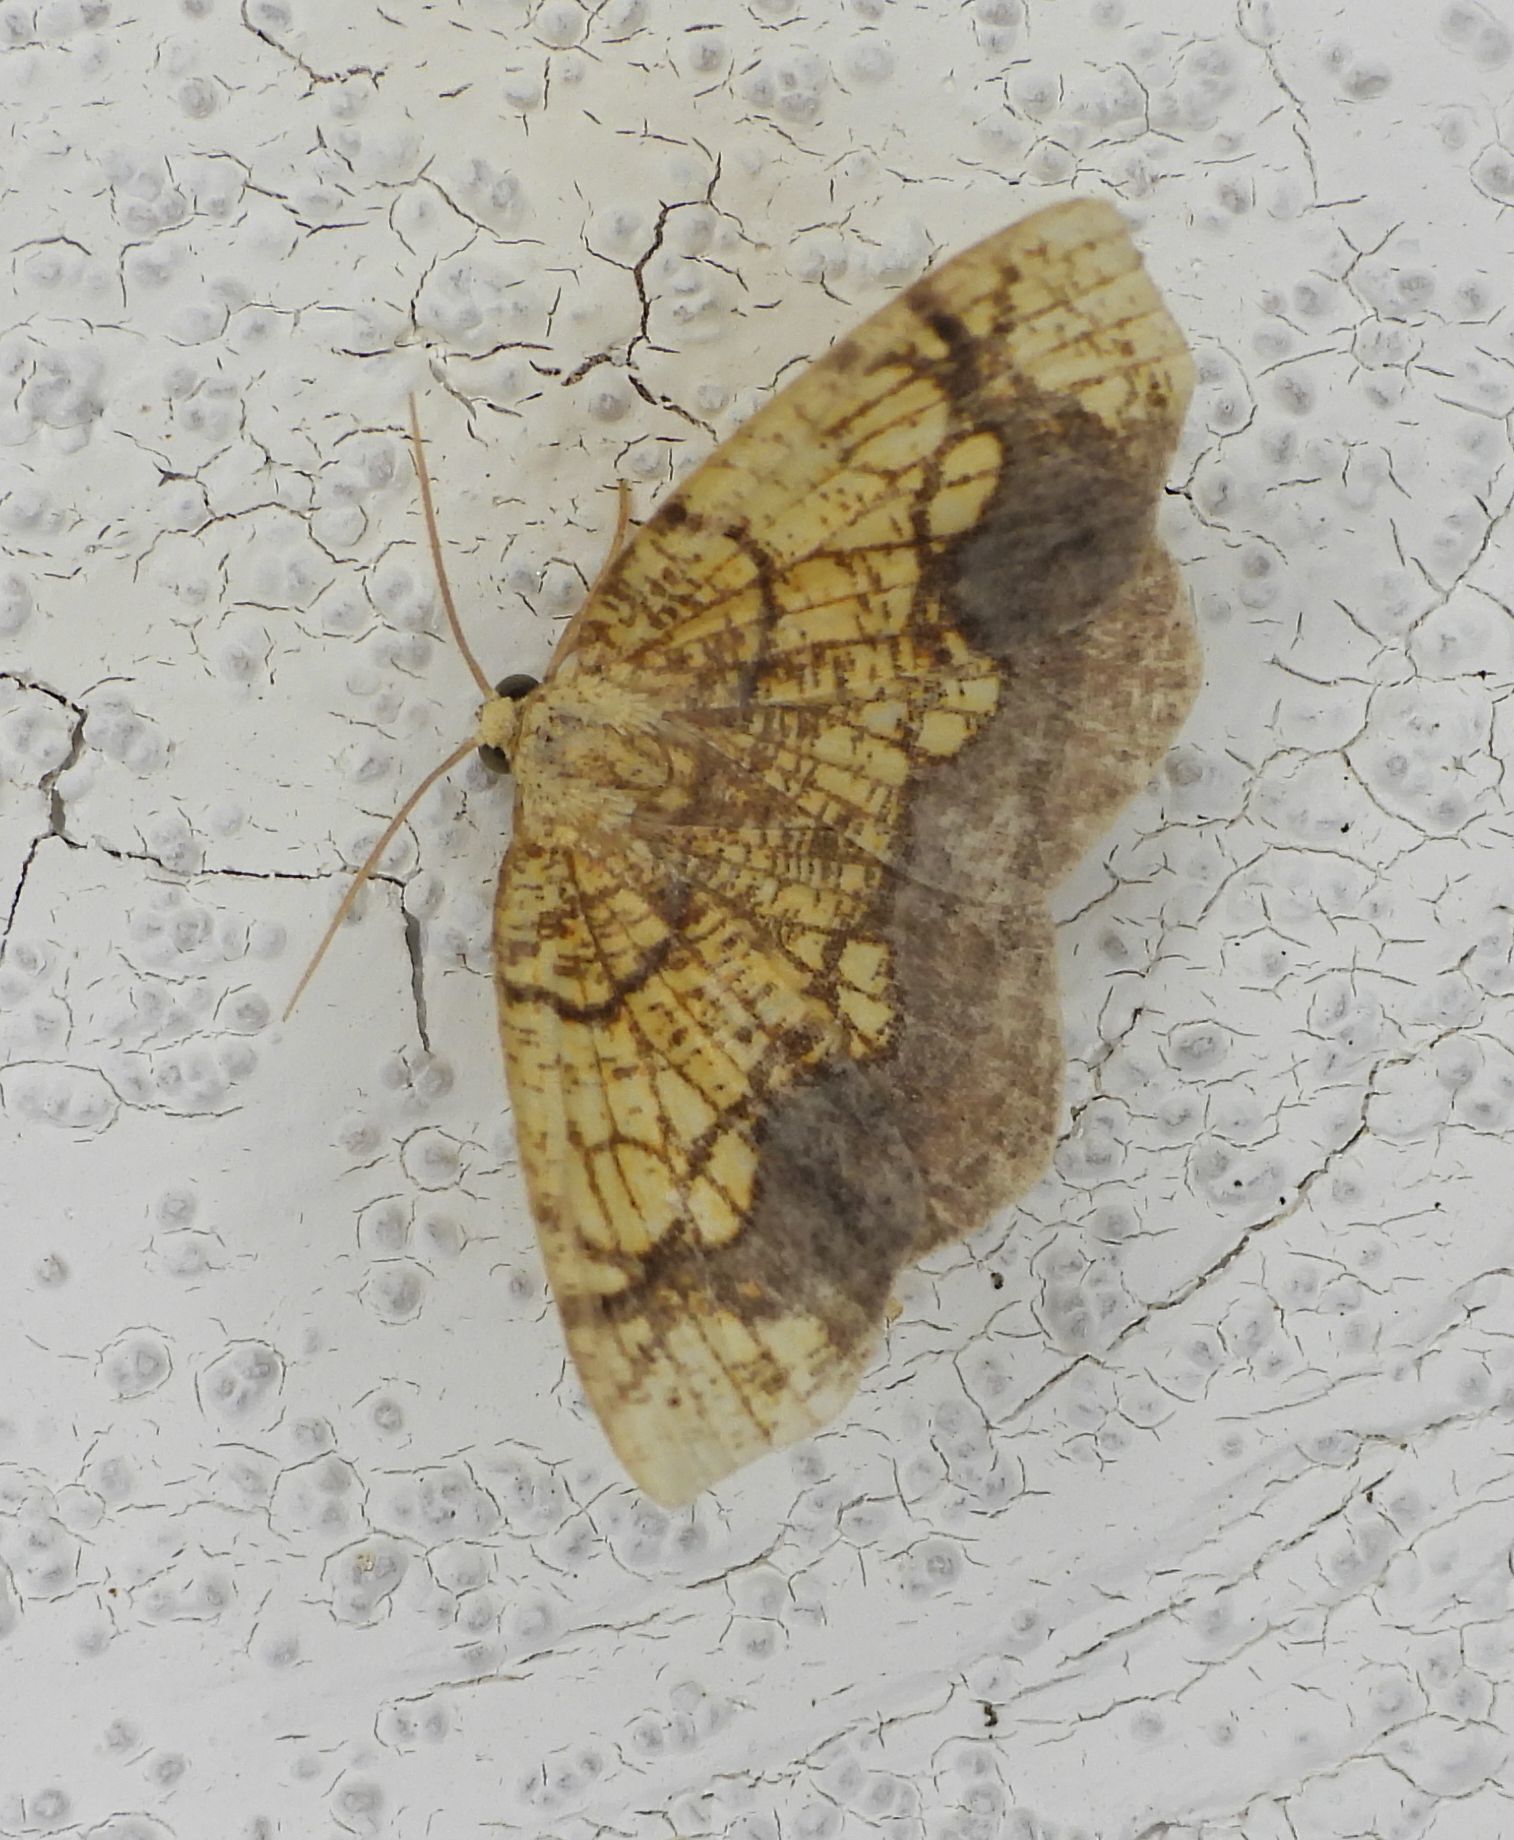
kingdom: Animalia
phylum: Arthropoda
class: Insecta
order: Lepidoptera
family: Geometridae
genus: Nematocampa
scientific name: Nematocampa resistaria
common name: Horned spanworm moth
